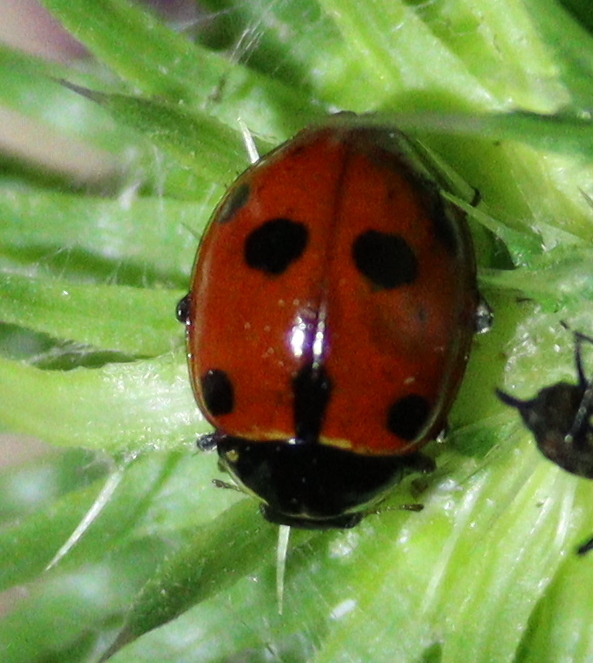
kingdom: Animalia
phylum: Arthropoda
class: Insecta
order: Coleoptera
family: Coccinellidae
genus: Ceratomegilla
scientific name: Ceratomegilla undecimnotata
